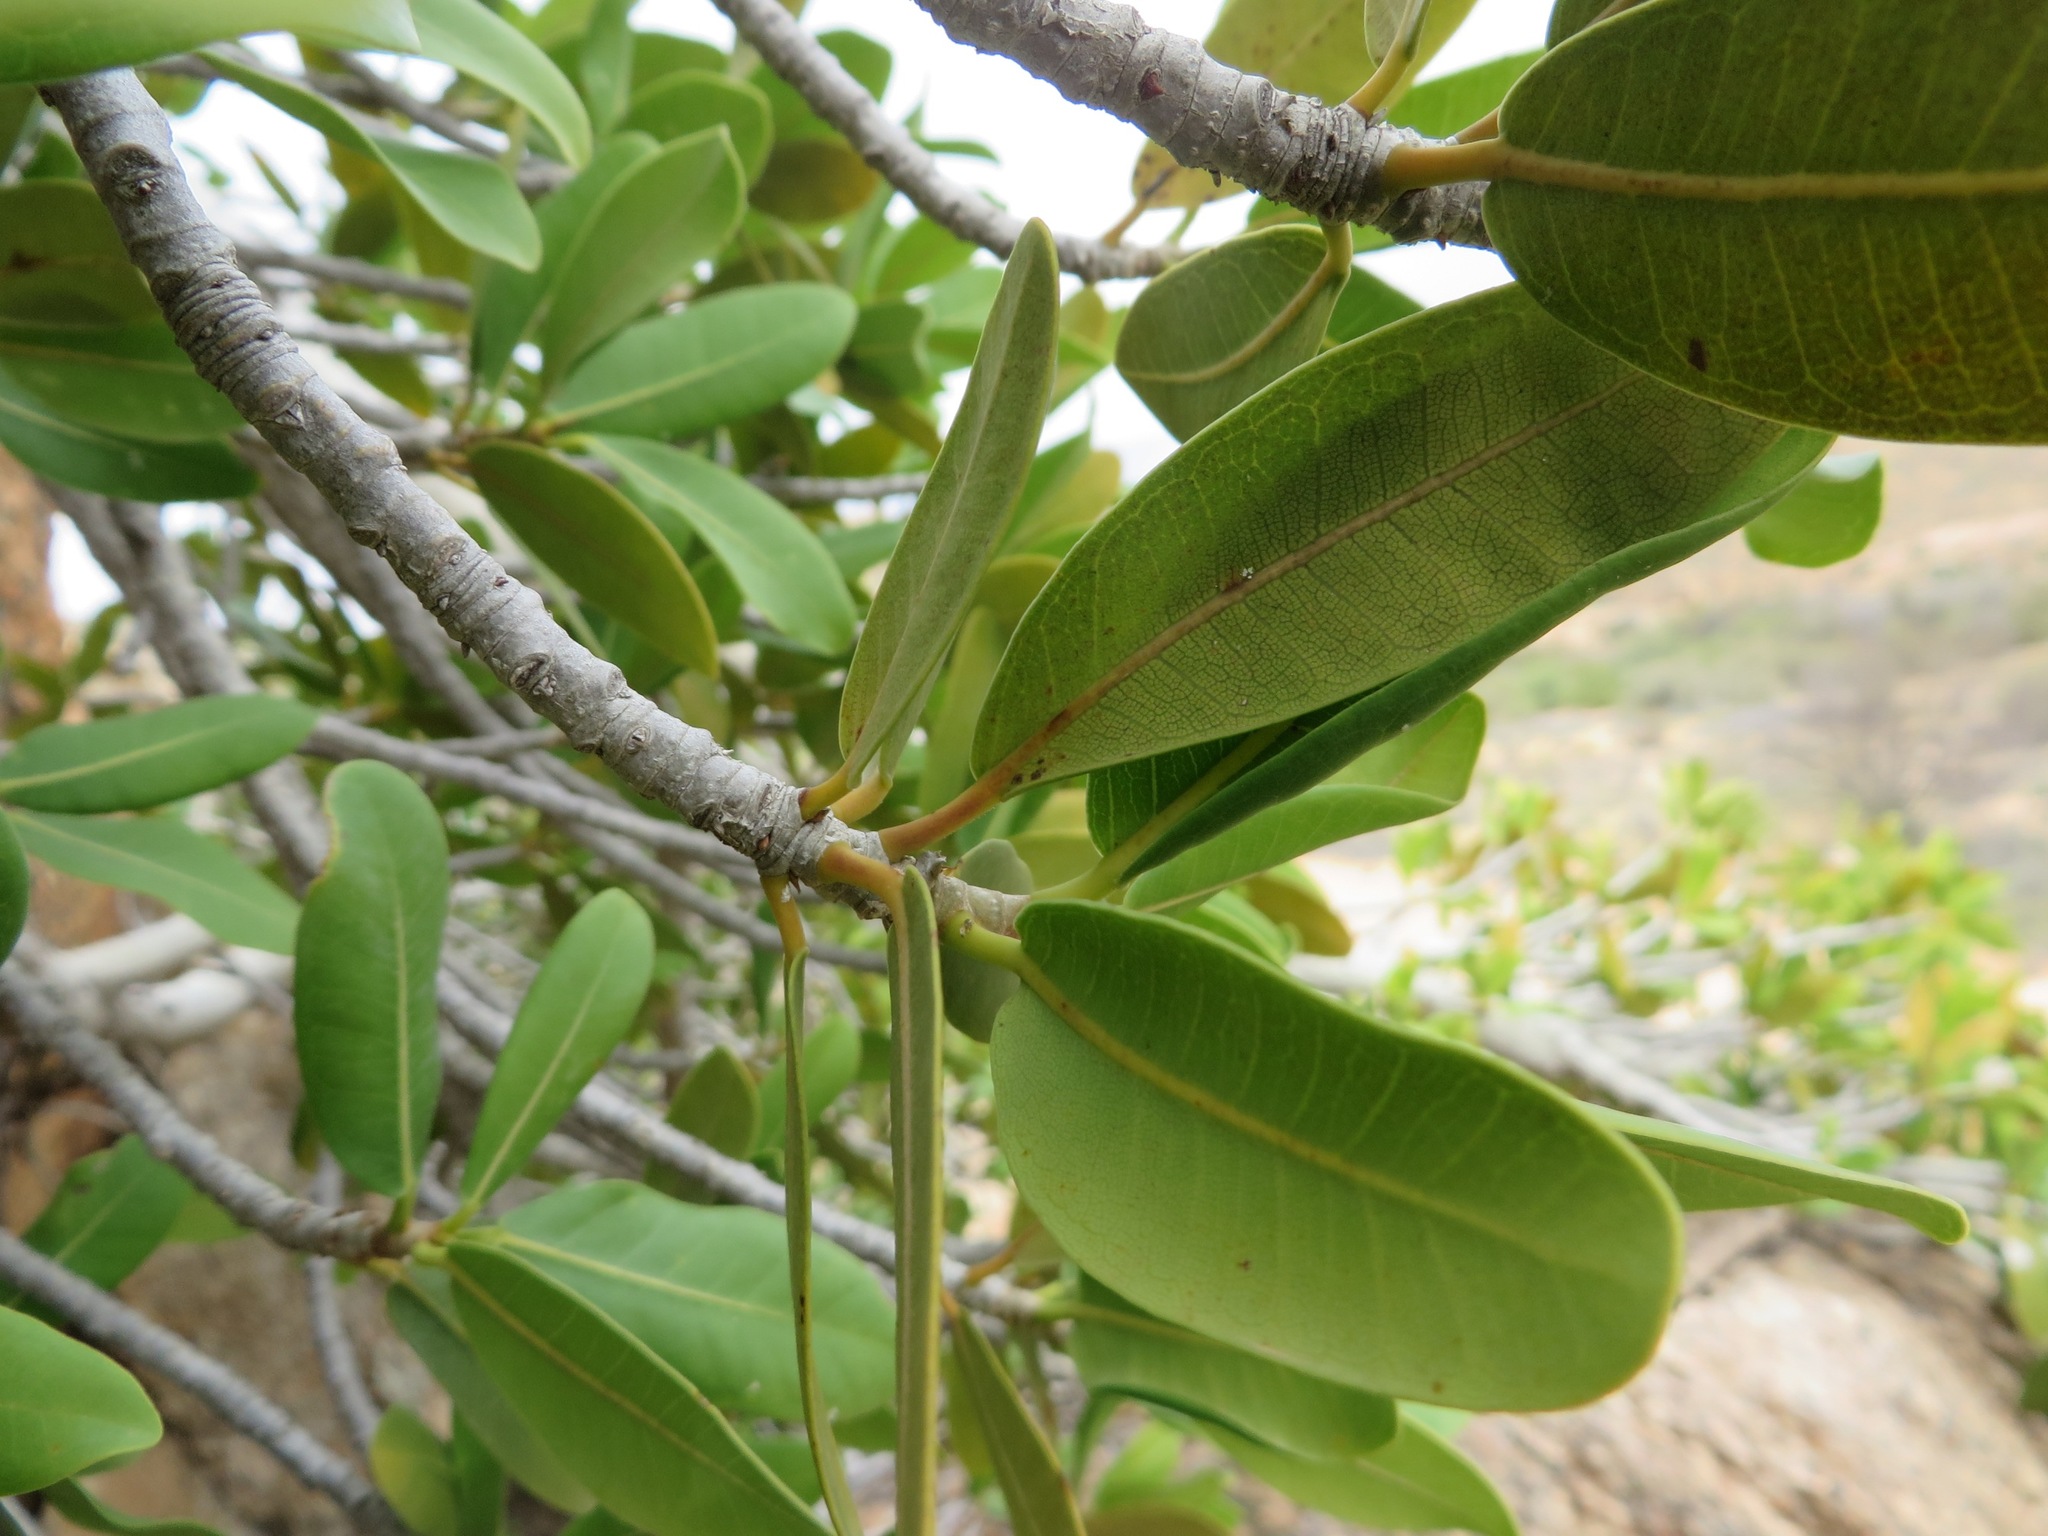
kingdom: Plantae
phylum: Tracheophyta
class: Magnoliopsida
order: Rosales
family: Moraceae
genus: Ficus
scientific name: Ficus ilicina
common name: Laurel rock fig
